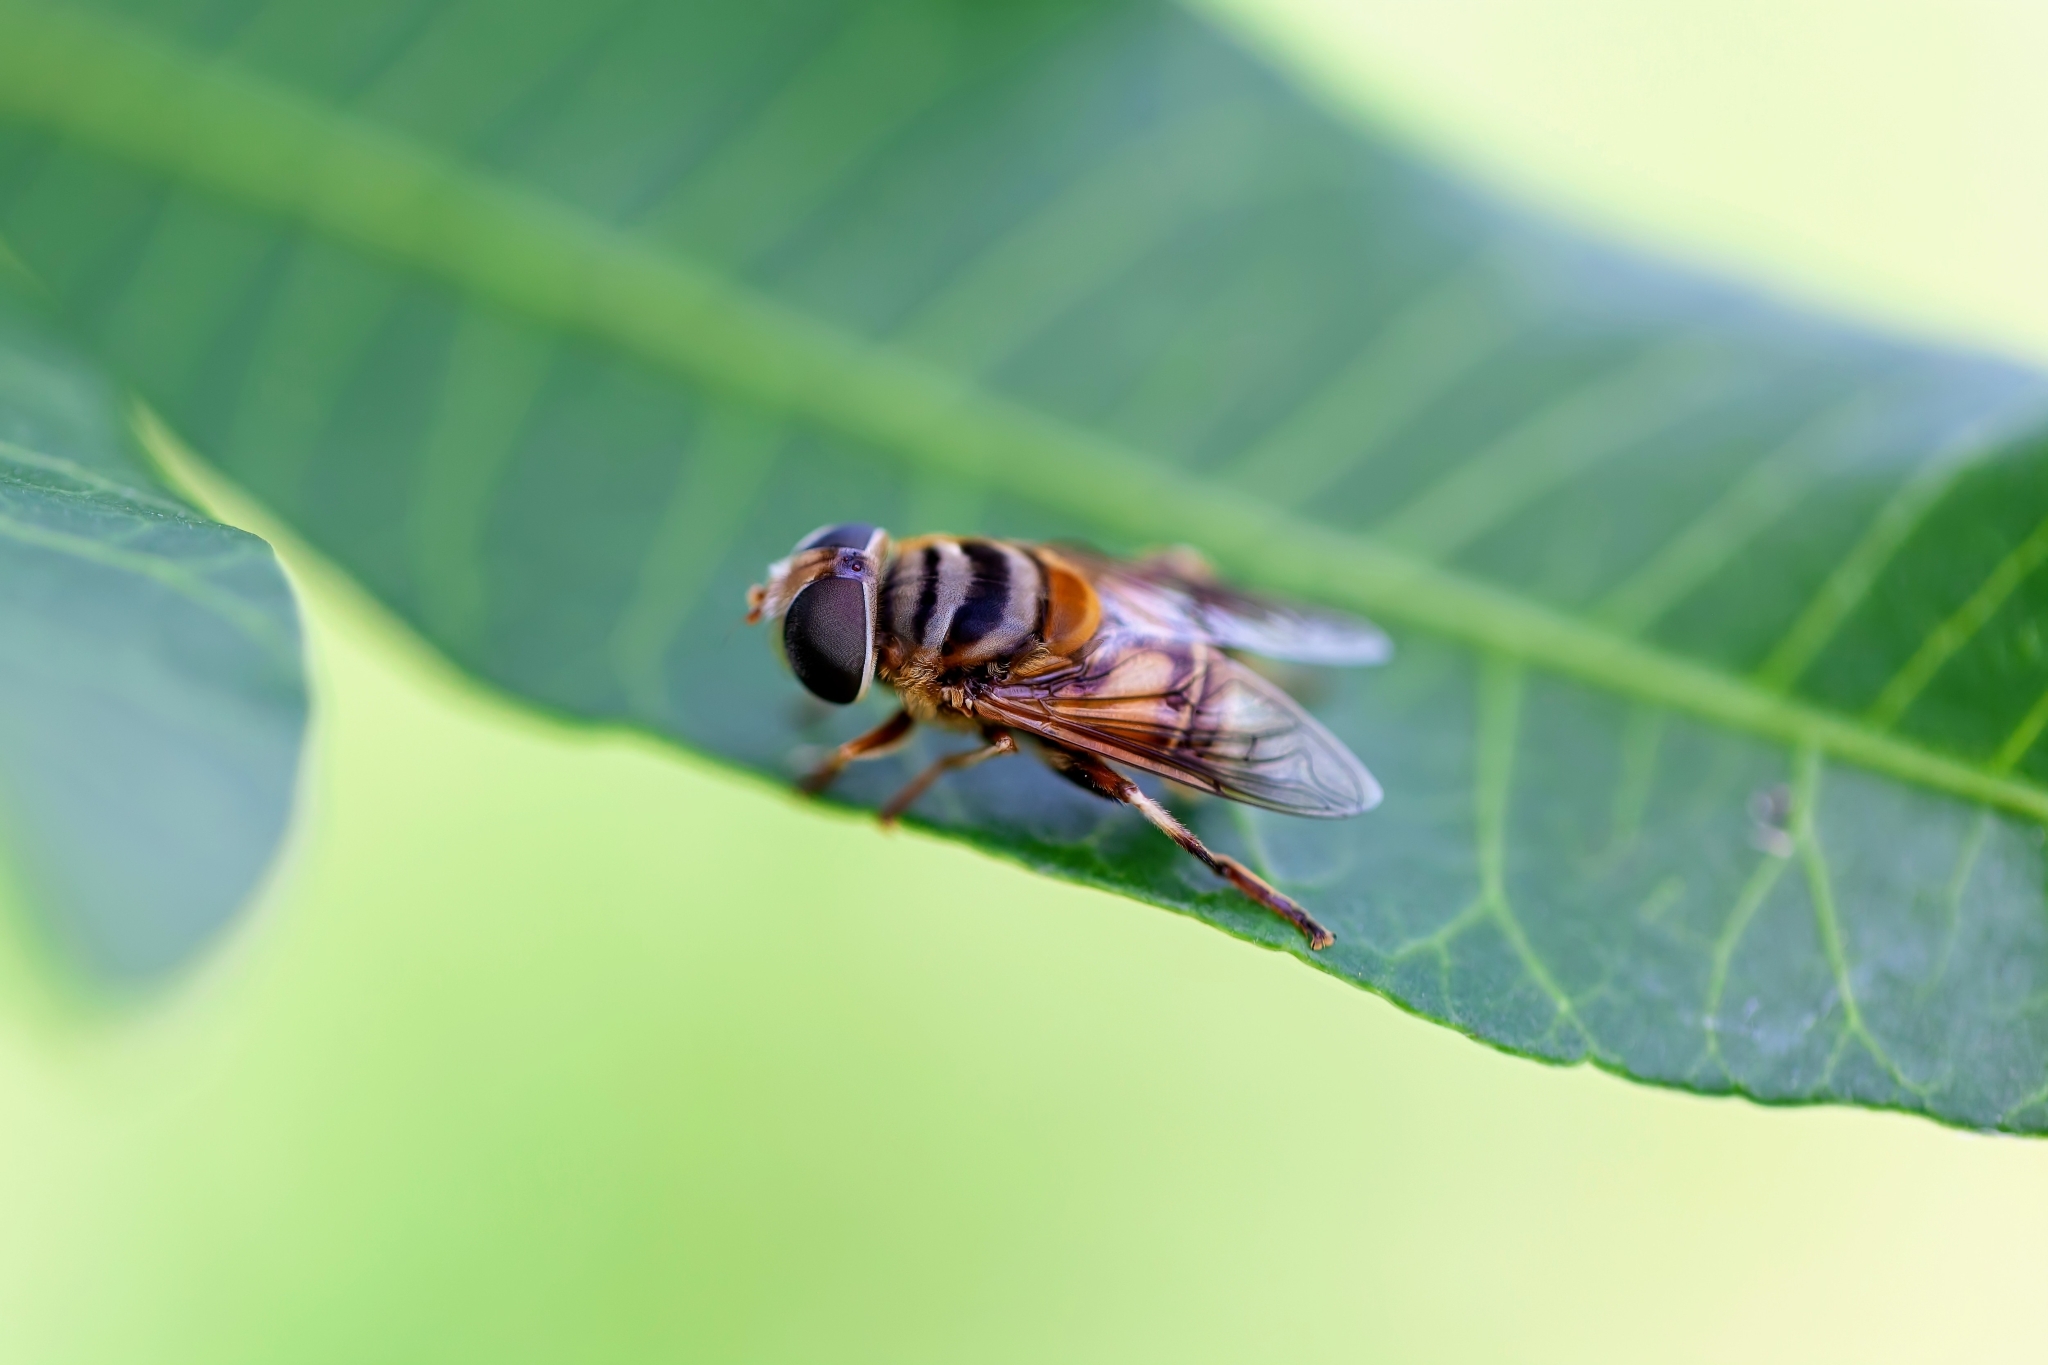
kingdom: Animalia
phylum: Arthropoda
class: Insecta
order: Diptera
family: Syrphidae
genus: Palpada
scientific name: Palpada vinetorum
